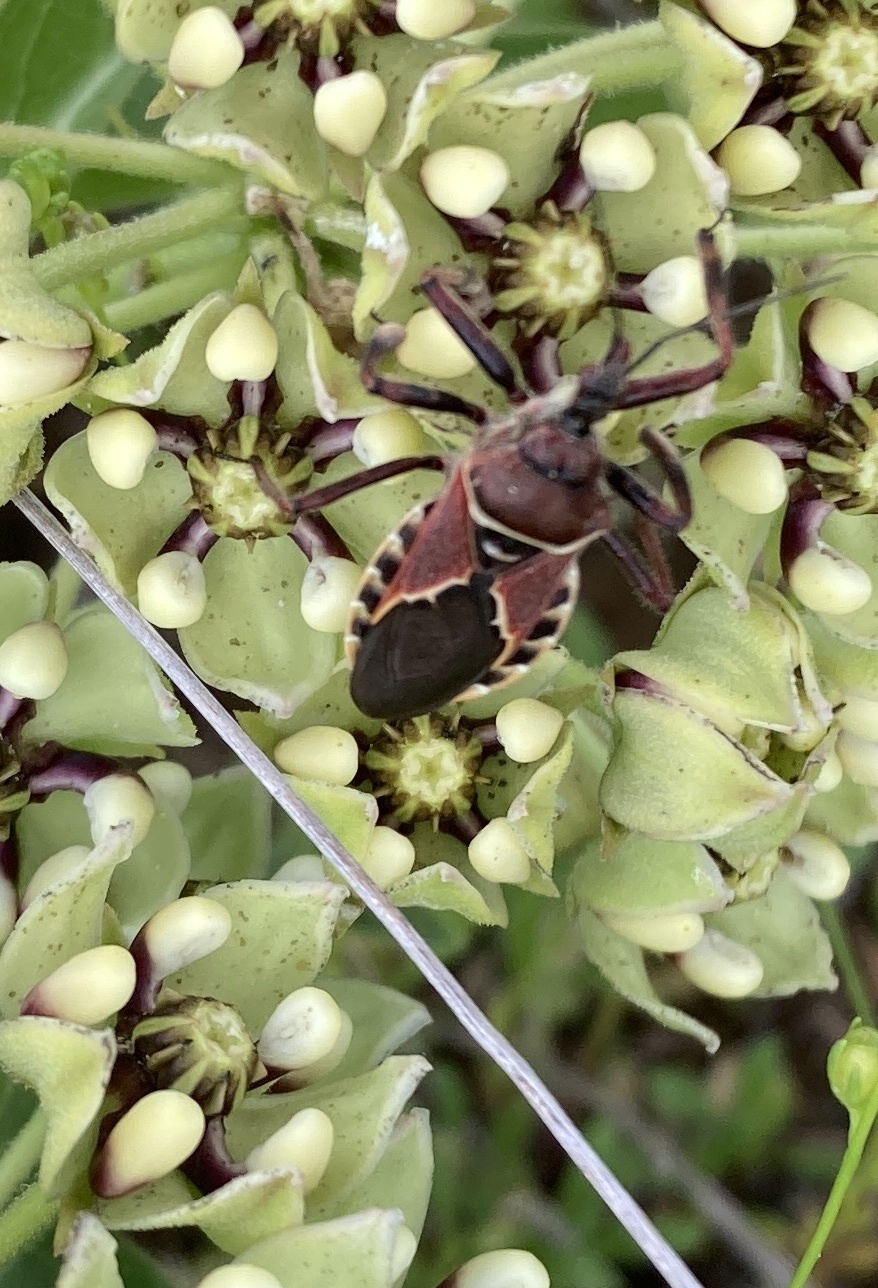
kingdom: Animalia
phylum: Arthropoda
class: Insecta
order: Hemiptera
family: Reduviidae
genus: Apiomerus
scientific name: Apiomerus spissipes
